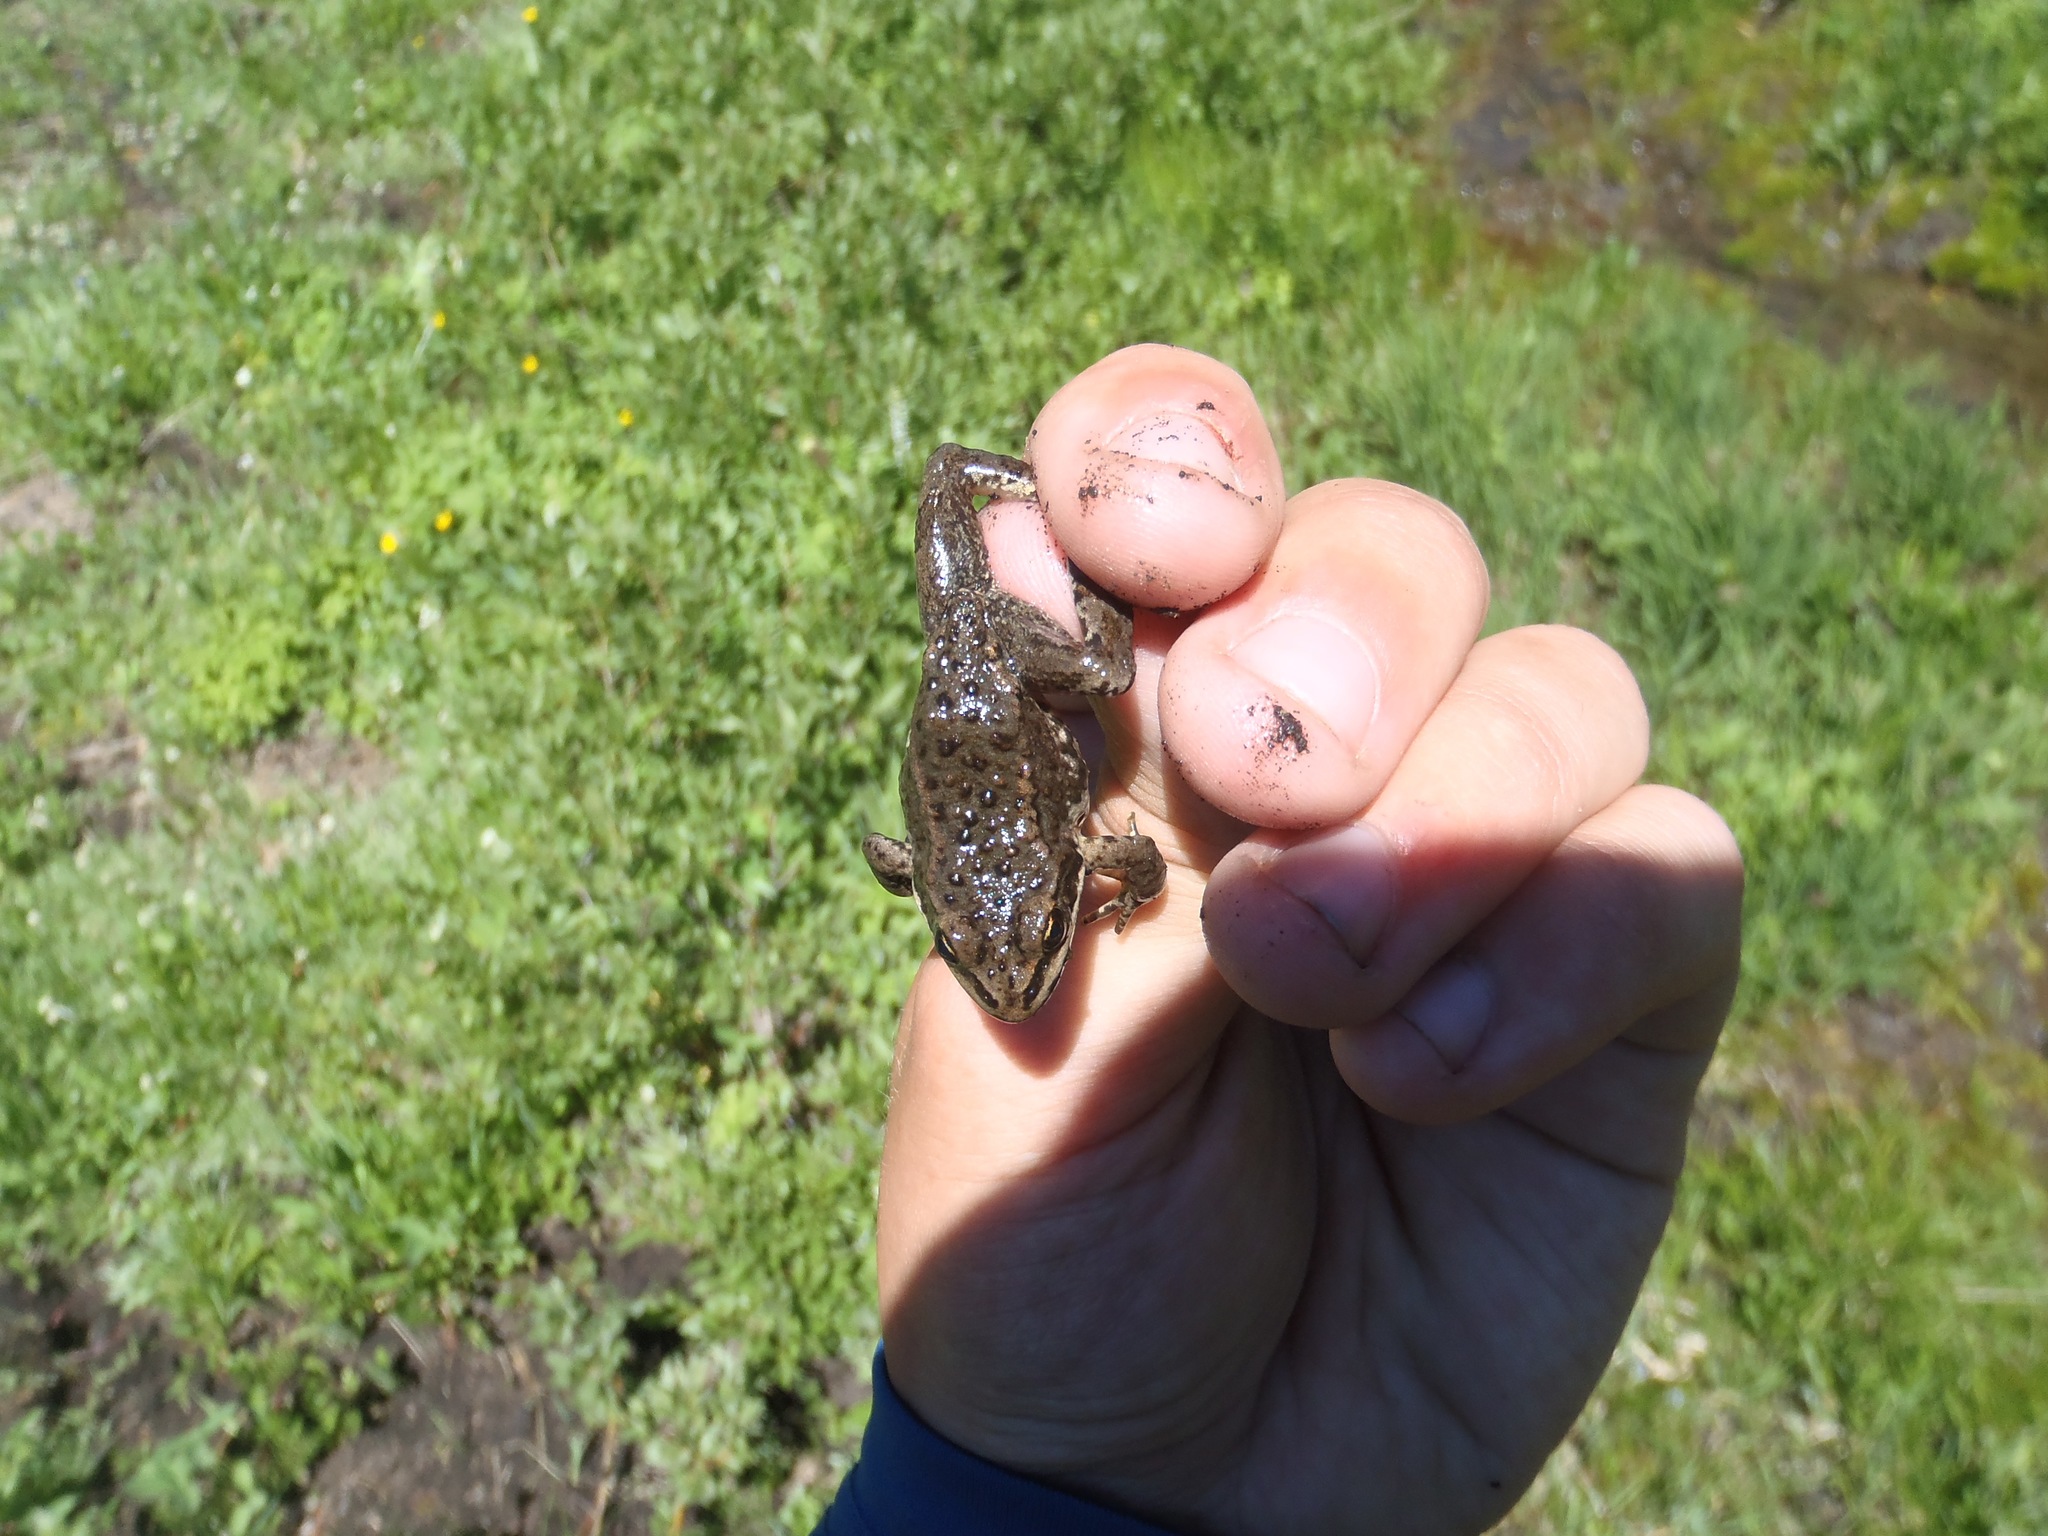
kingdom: Animalia
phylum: Chordata
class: Amphibia
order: Anura
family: Ranidae
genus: Rana
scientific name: Rana luteiventris
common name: Columbia spotted frog
